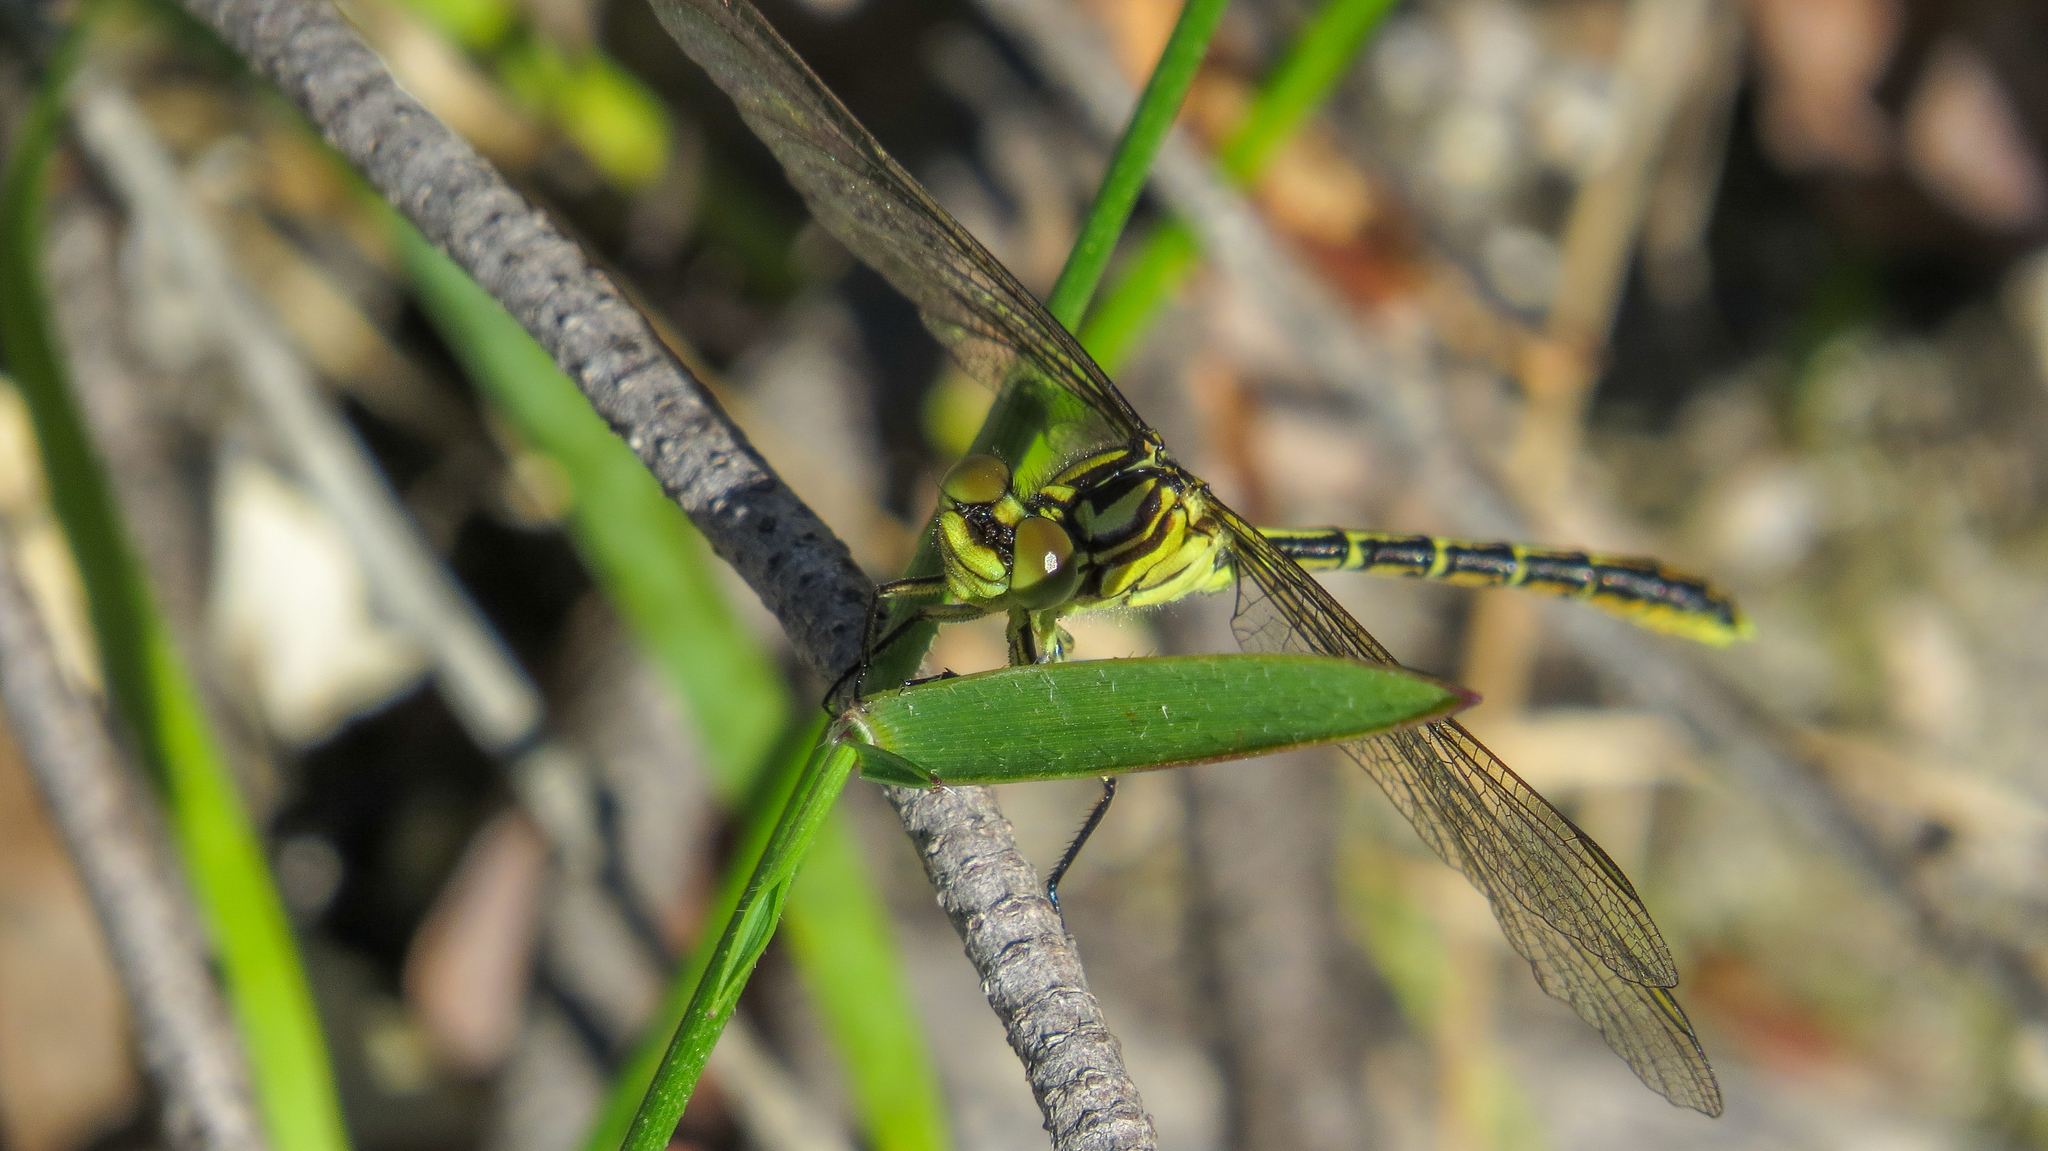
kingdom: Animalia
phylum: Arthropoda
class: Insecta
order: Odonata
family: Gomphidae
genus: Austrogomphus
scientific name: Austrogomphus guerini
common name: Yellow-striped hunter
